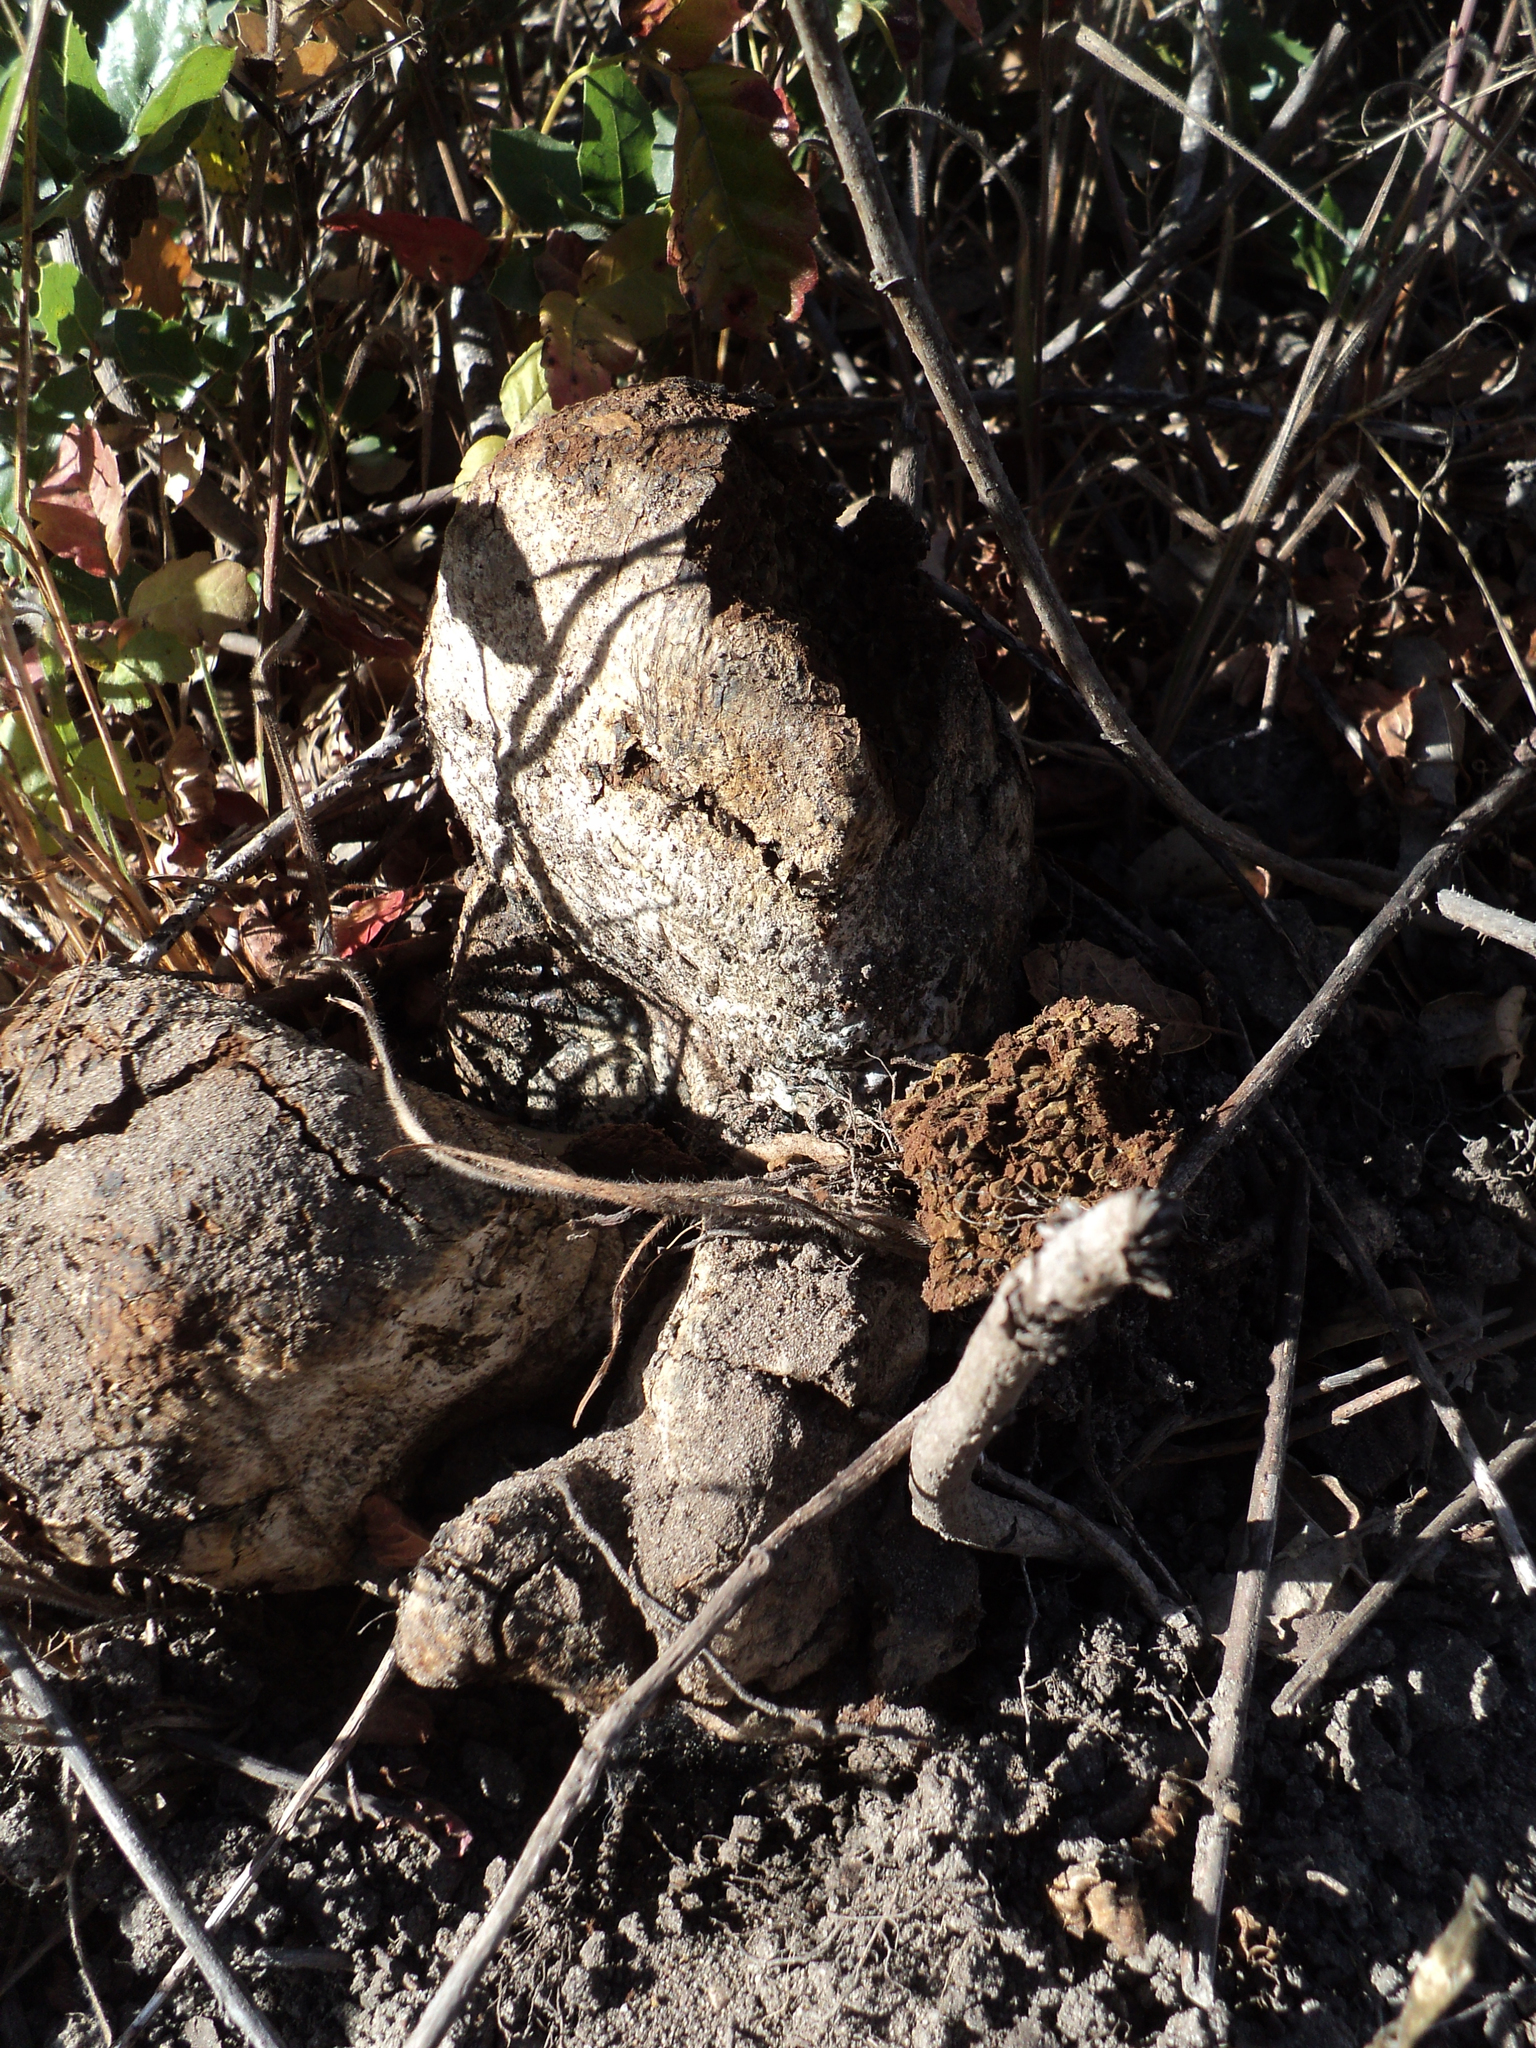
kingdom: Fungi
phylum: Basidiomycota
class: Agaricomycetes
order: Boletales
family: Sclerodermataceae
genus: Pisolithus
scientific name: Pisolithus arhizus
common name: Dyeball
